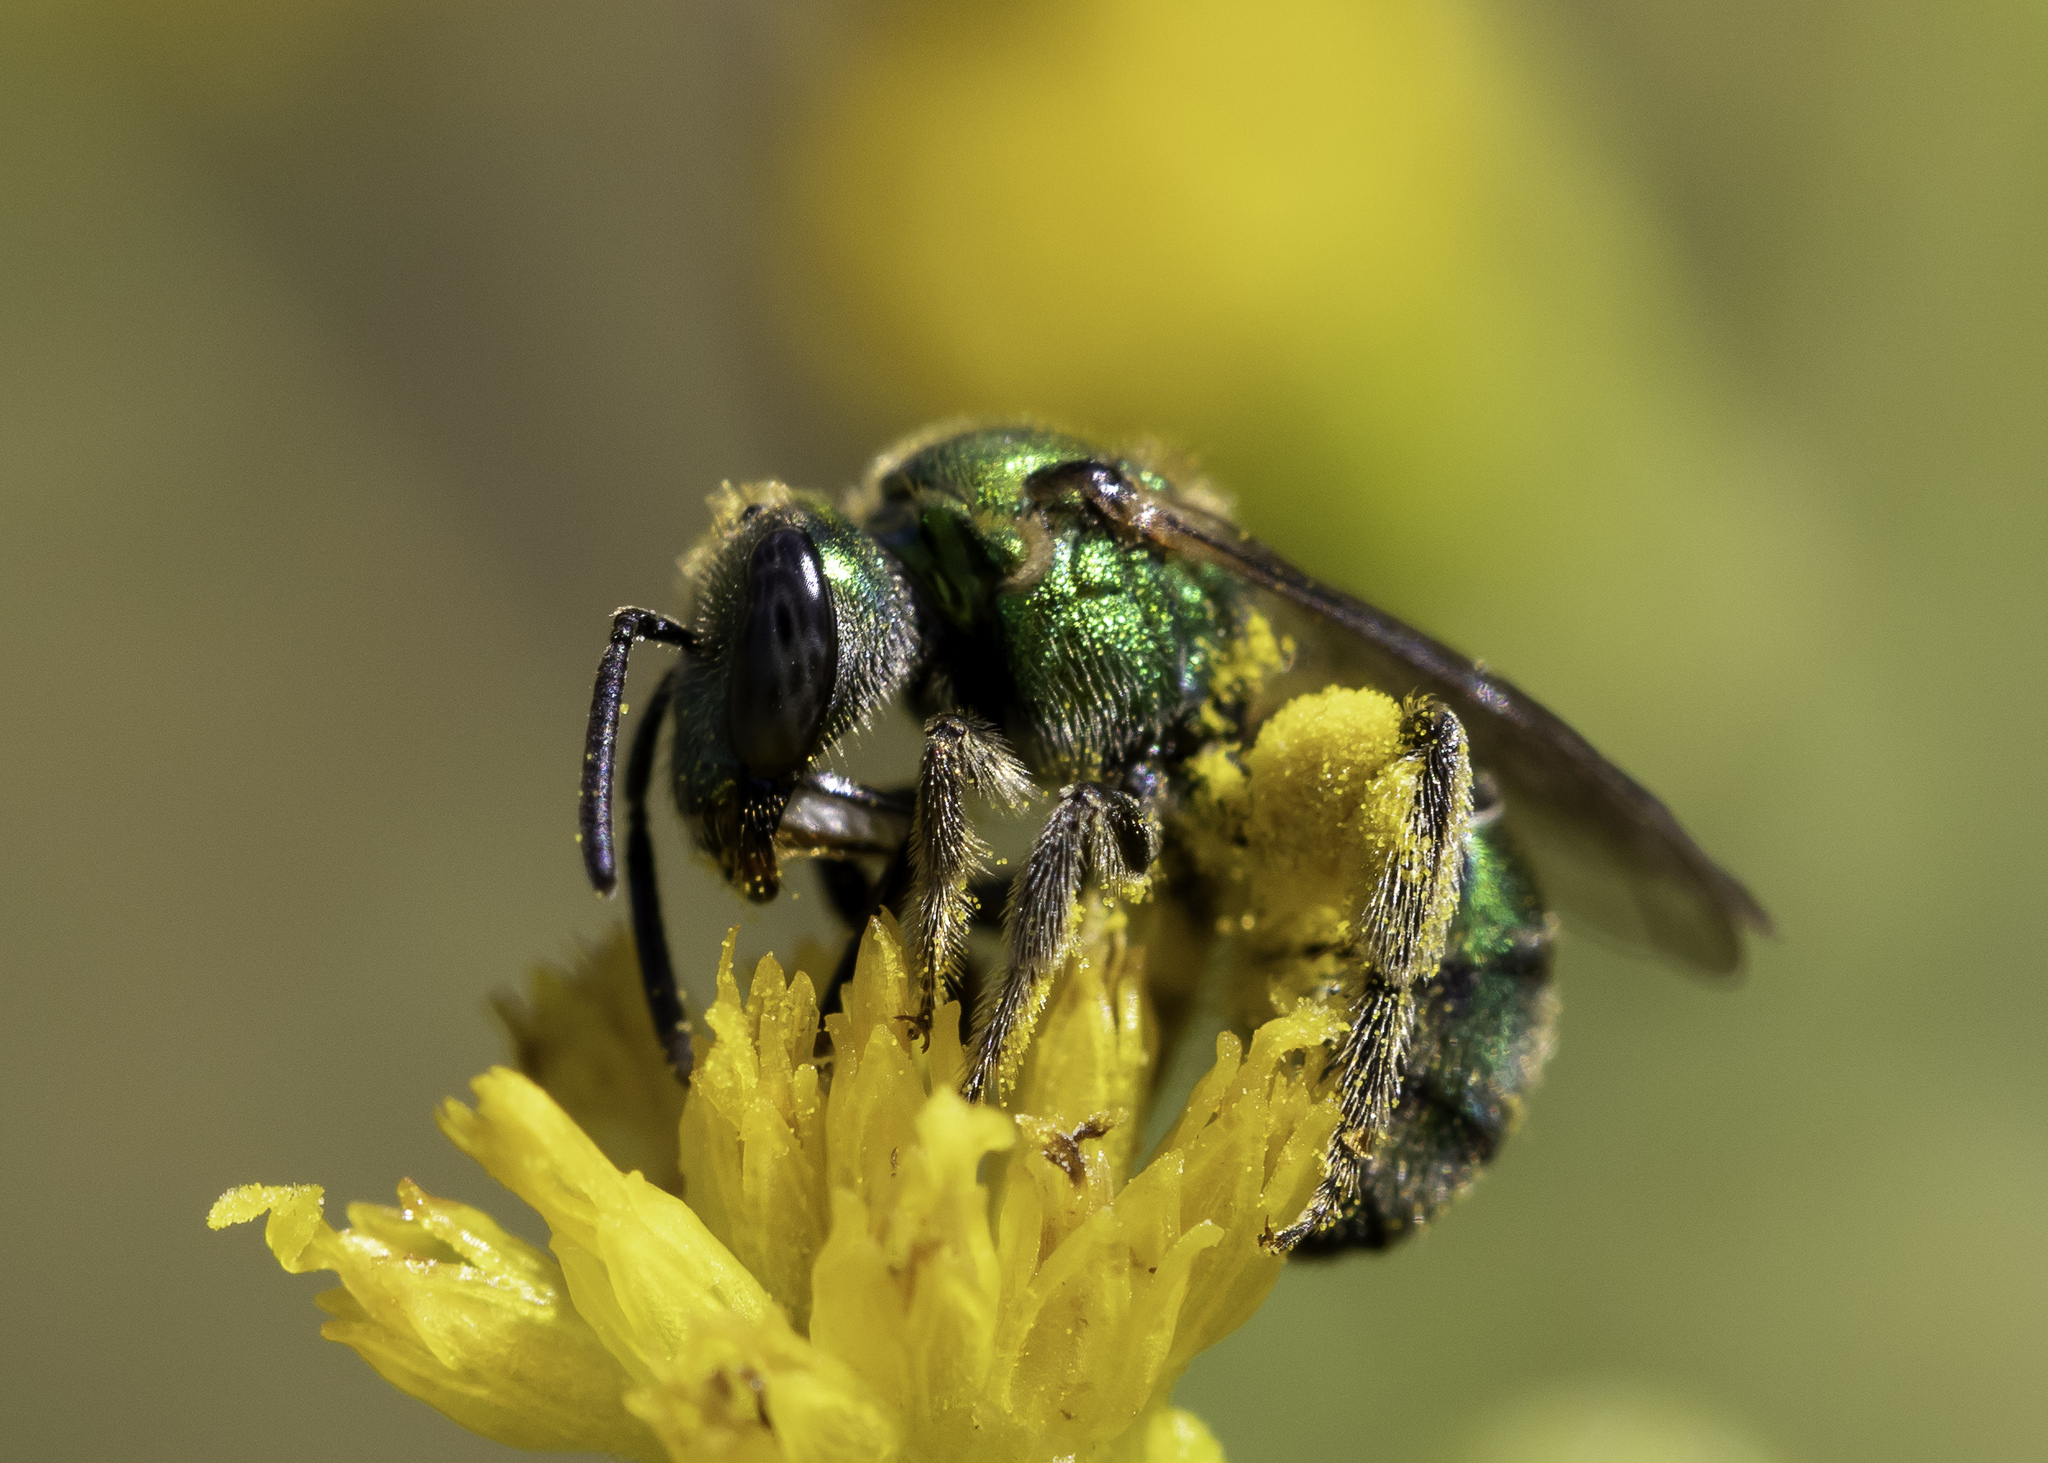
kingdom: Animalia
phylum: Arthropoda
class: Insecta
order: Hymenoptera
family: Halictidae
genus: Augochlorella
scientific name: Augochlorella pomoniella
